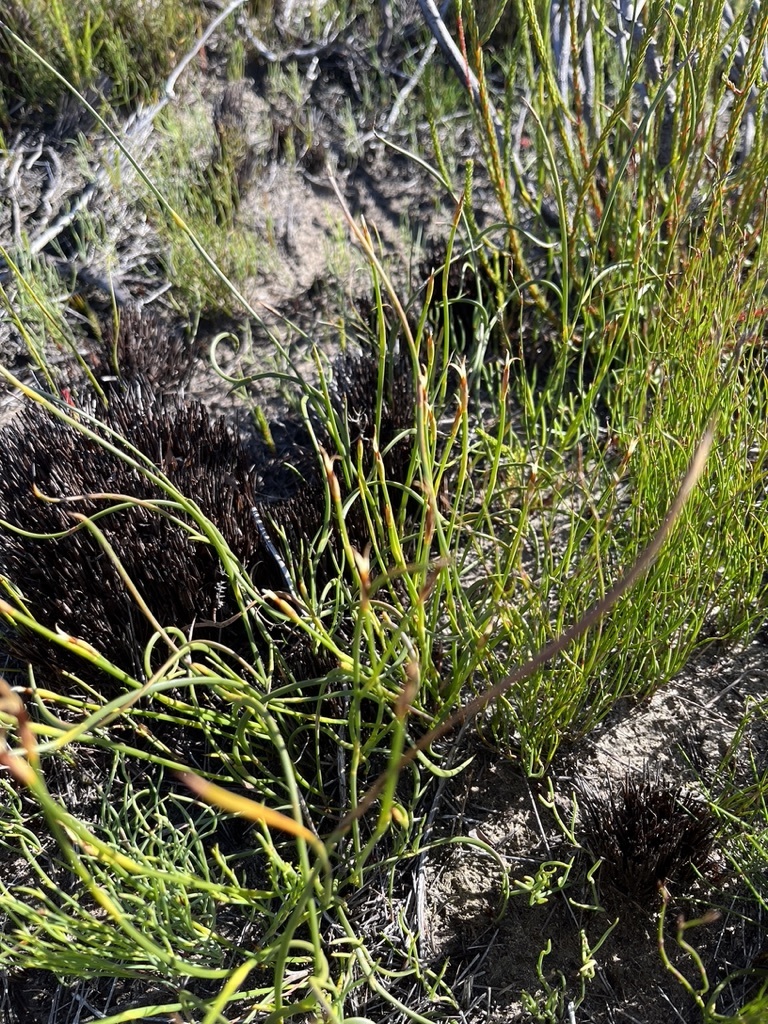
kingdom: Plantae
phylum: Tracheophyta
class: Liliopsida
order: Poales
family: Restionaceae
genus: Hypodiscus
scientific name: Hypodiscus willdenowia
